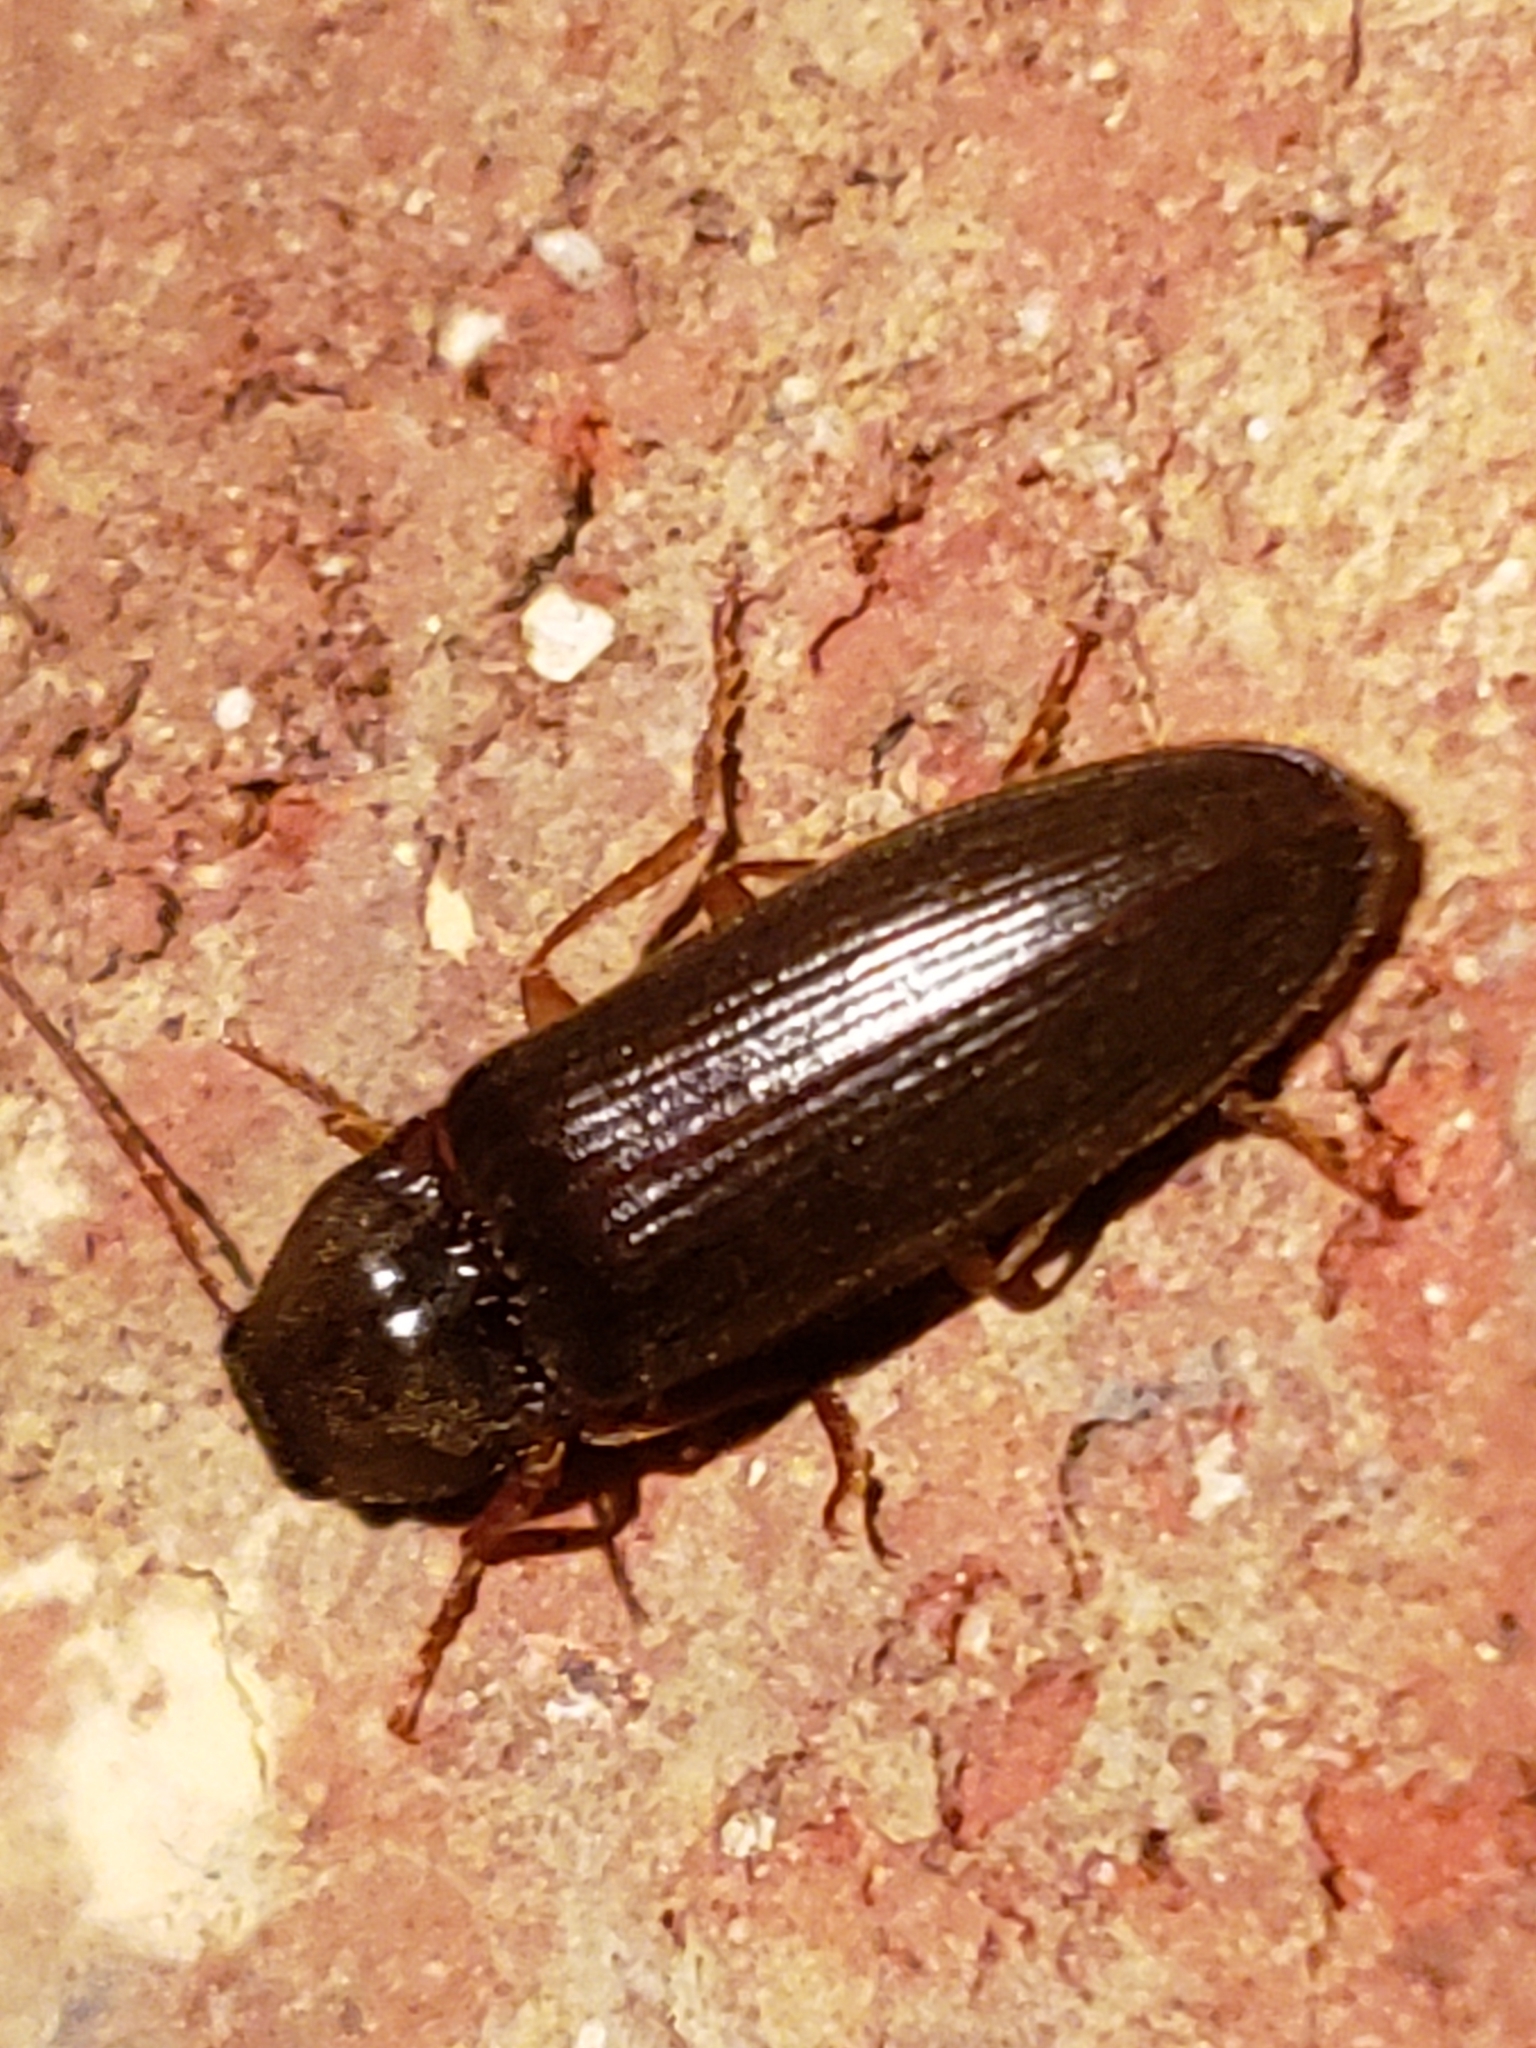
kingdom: Animalia
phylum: Arthropoda
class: Insecta
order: Coleoptera
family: Elateridae
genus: Hemicrepidius
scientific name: Hemicrepidius
